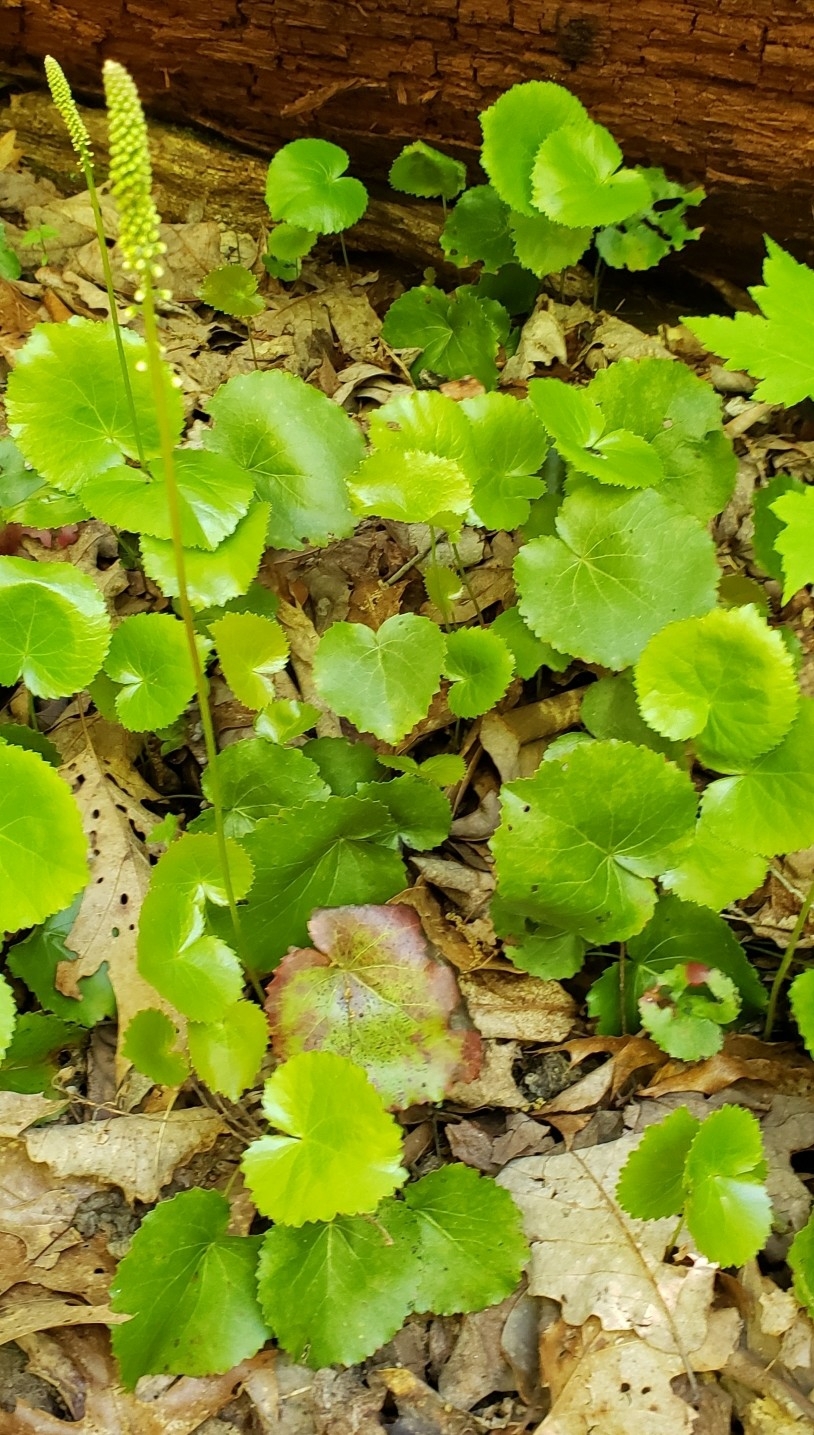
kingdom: Plantae
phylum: Tracheophyta
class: Magnoliopsida
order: Ericales
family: Diapensiaceae
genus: Galax
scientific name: Galax urceolata
